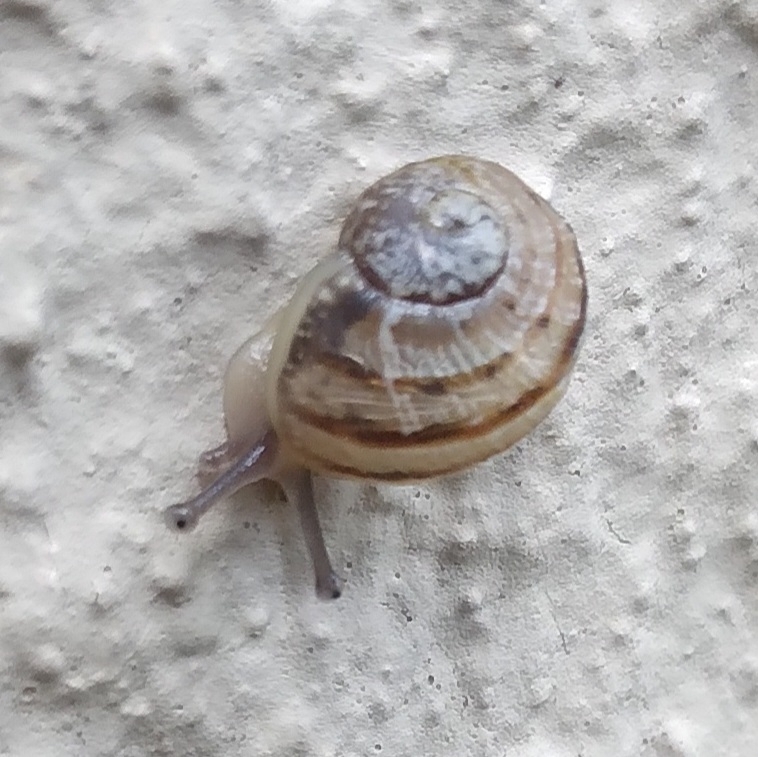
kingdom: Animalia
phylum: Mollusca
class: Gastropoda
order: Stylommatophora
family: Helicidae
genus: Cornu
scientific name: Cornu aspersum
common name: Brown garden snail
